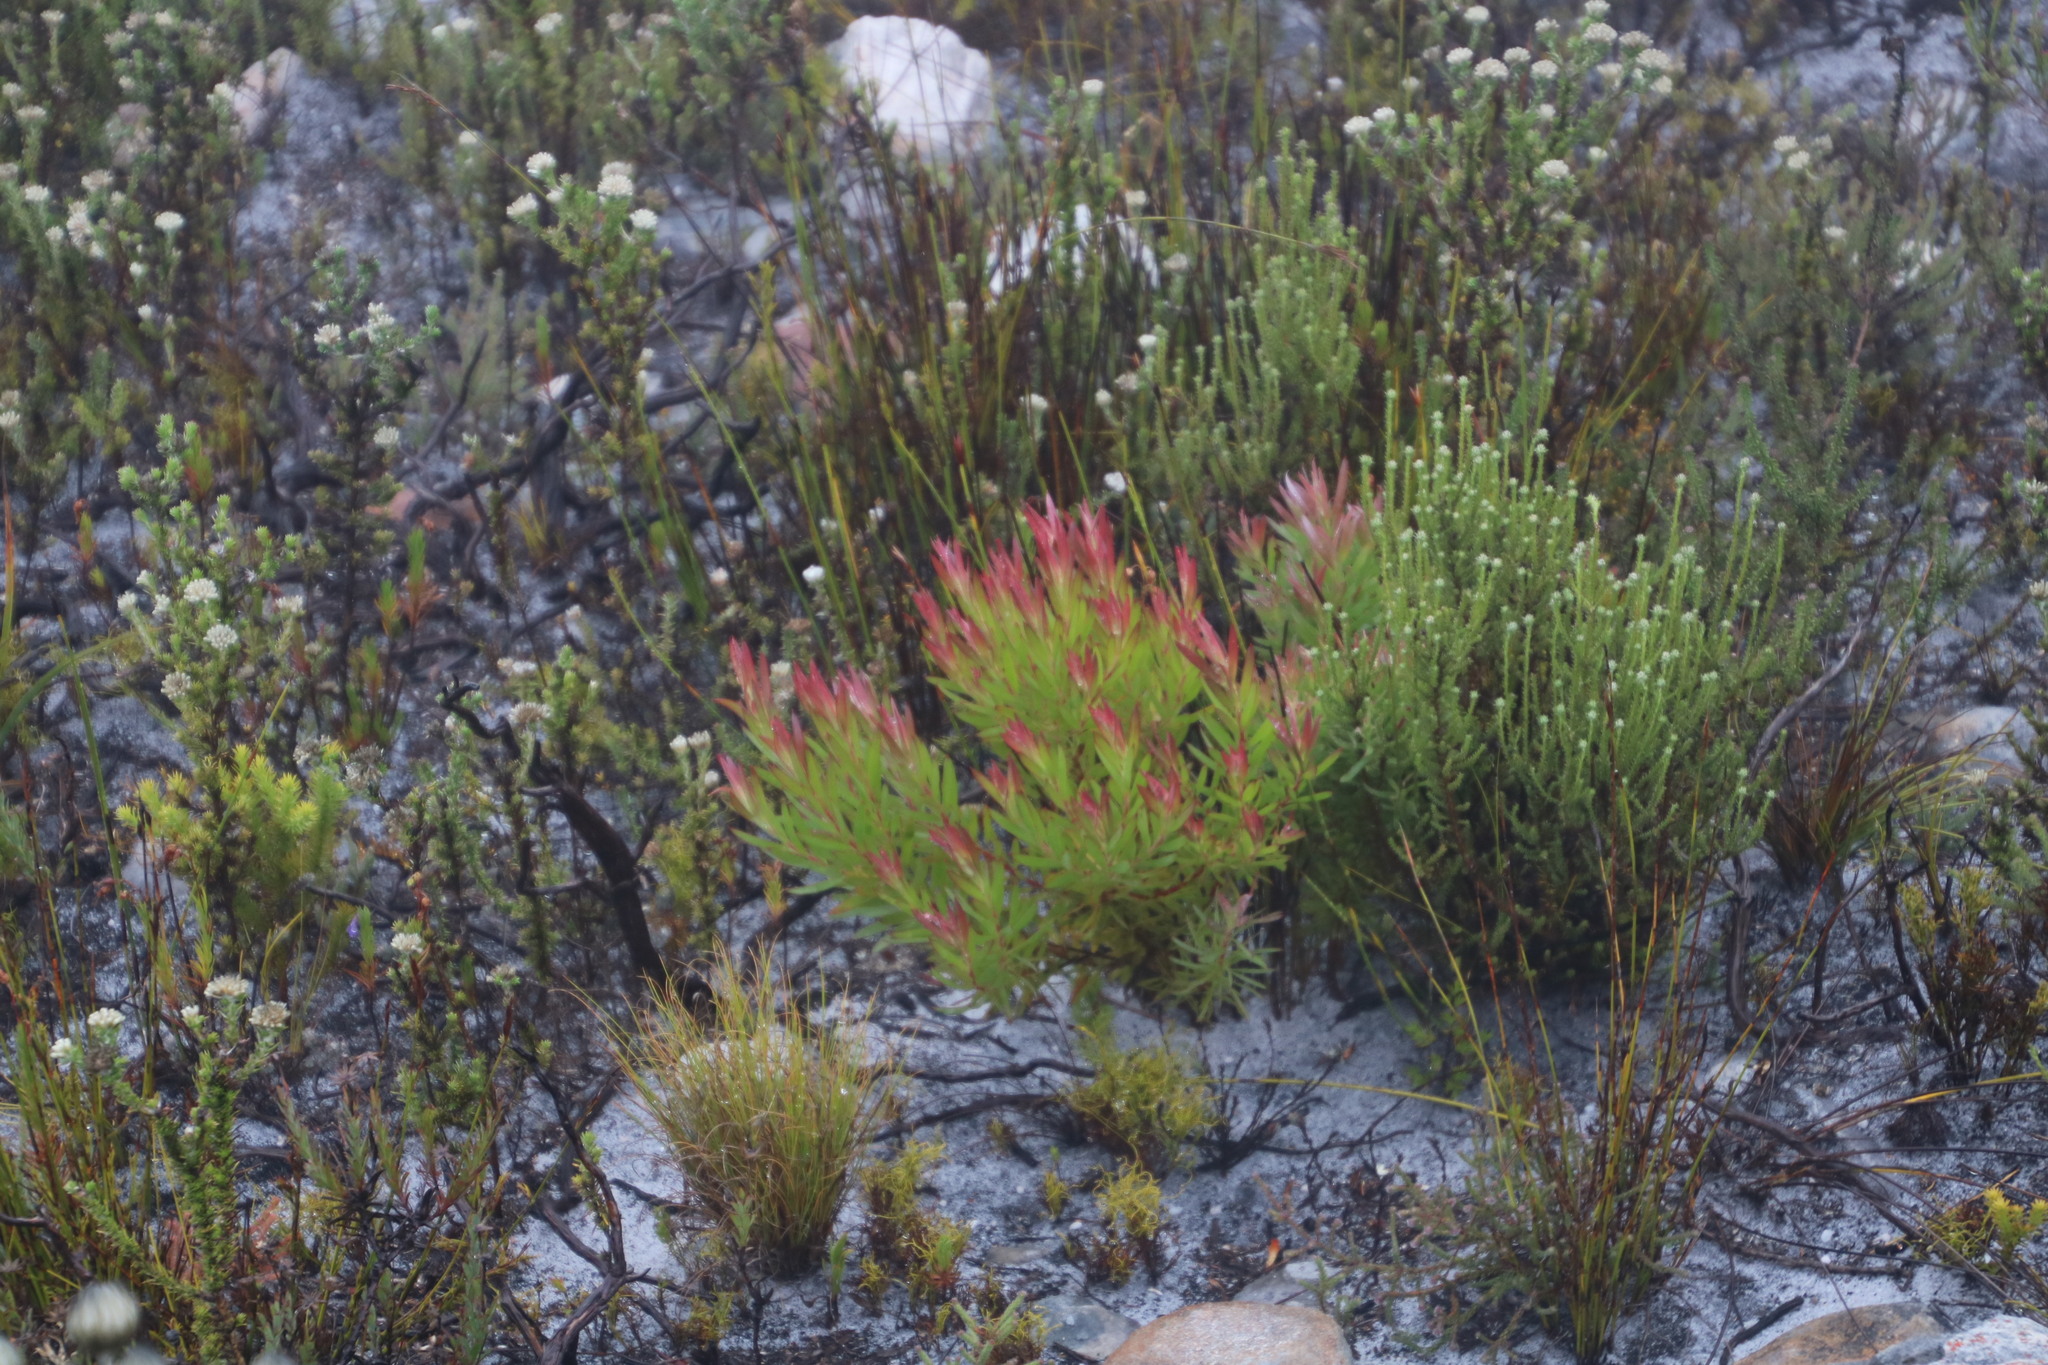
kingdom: Plantae
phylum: Tracheophyta
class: Magnoliopsida
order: Proteales
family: Proteaceae
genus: Leucadendron
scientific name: Leucadendron xanthoconus
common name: Sickle-leaf conebush
